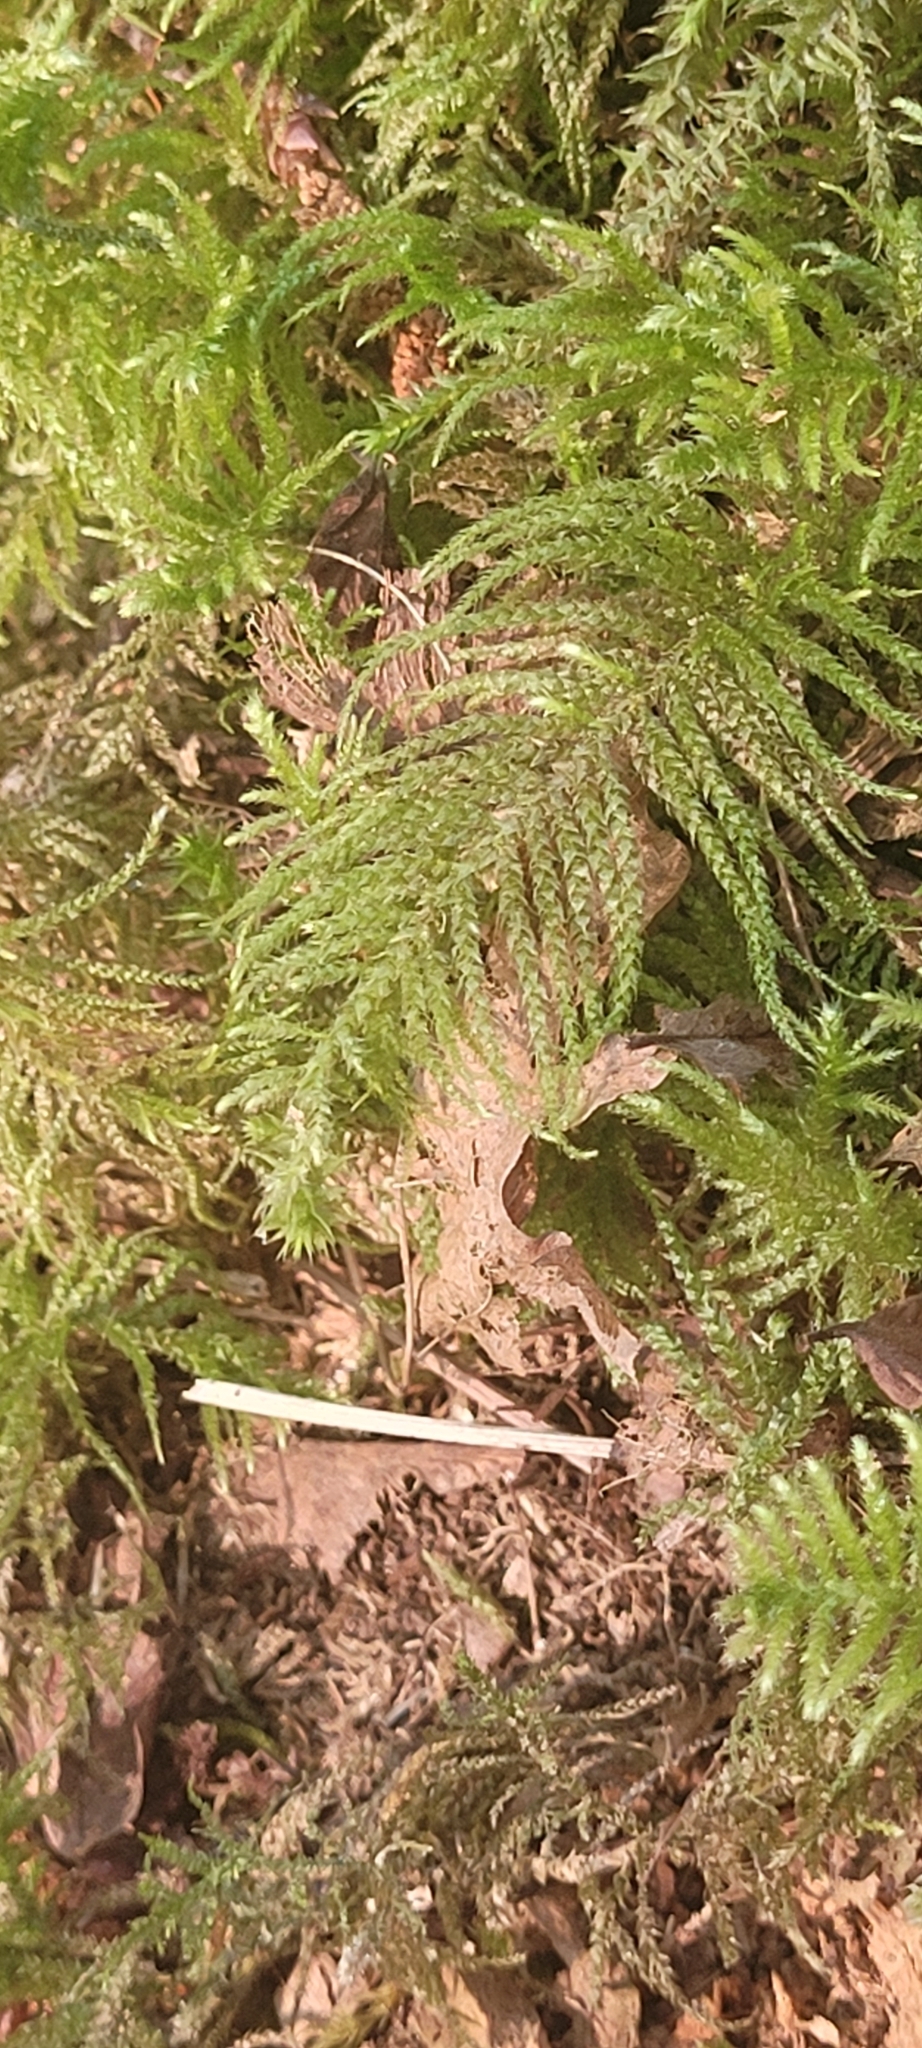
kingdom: Plantae
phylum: Bryophyta
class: Bryopsida
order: Hypnales
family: Brachytheciaceae
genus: Kindbergia
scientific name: Kindbergia oregana
